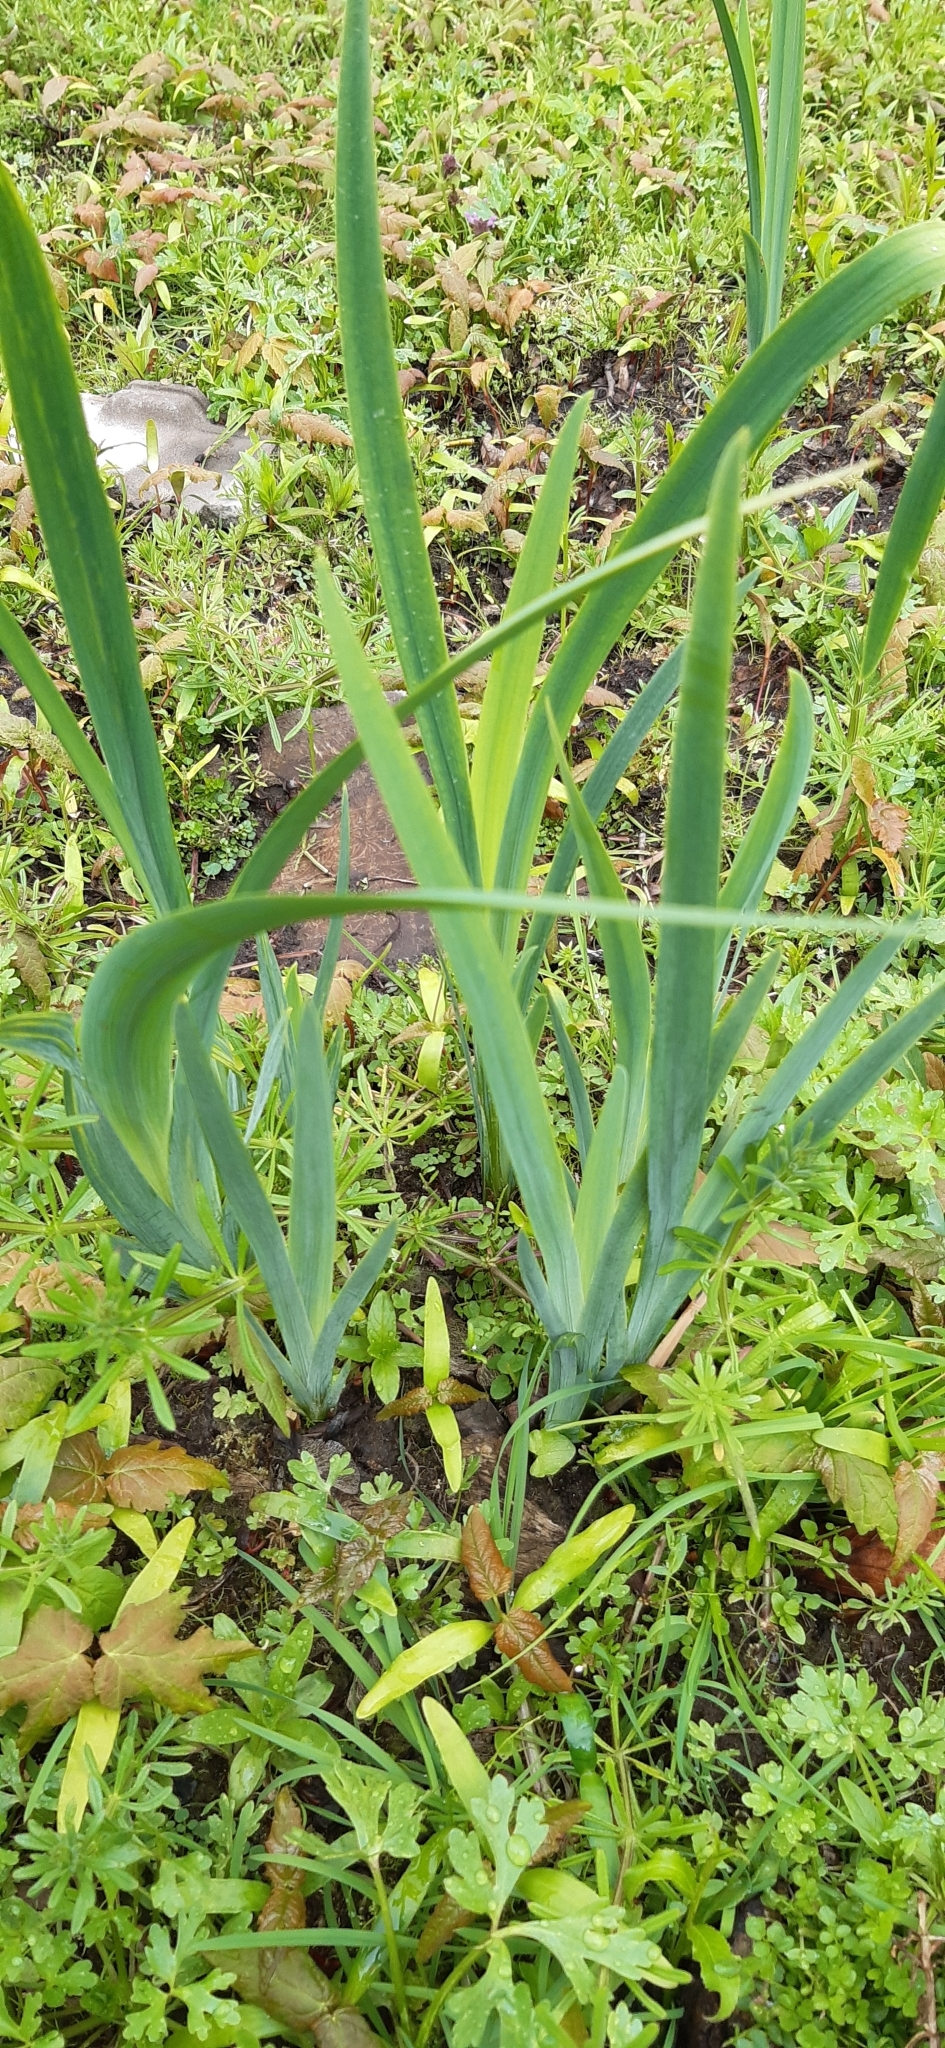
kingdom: Plantae
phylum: Tracheophyta
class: Liliopsida
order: Asparagales
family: Iridaceae
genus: Iris
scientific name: Iris pseudacorus
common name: Yellow flag
